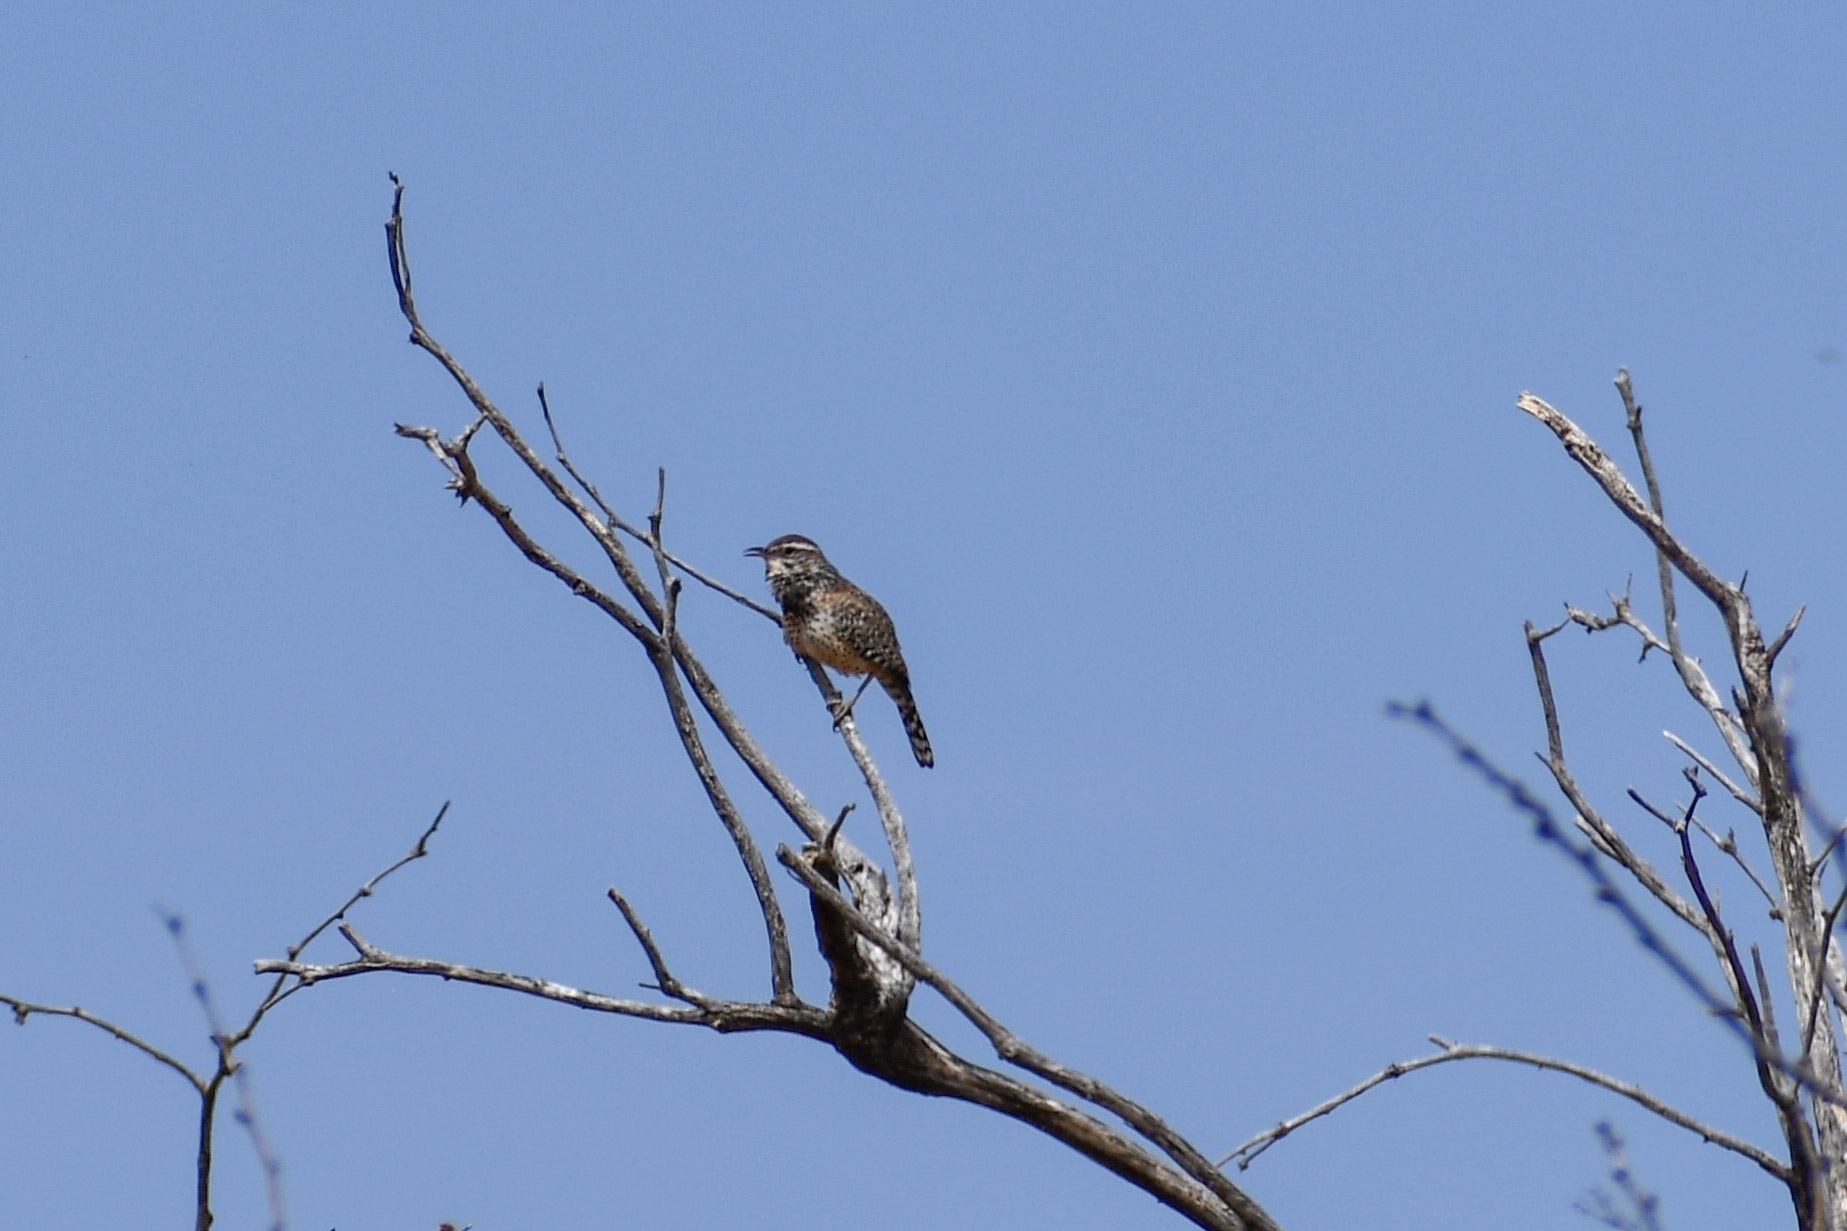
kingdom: Animalia
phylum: Chordata
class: Aves
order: Passeriformes
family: Troglodytidae
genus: Campylorhynchus
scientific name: Campylorhynchus brunneicapillus
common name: Cactus wren
